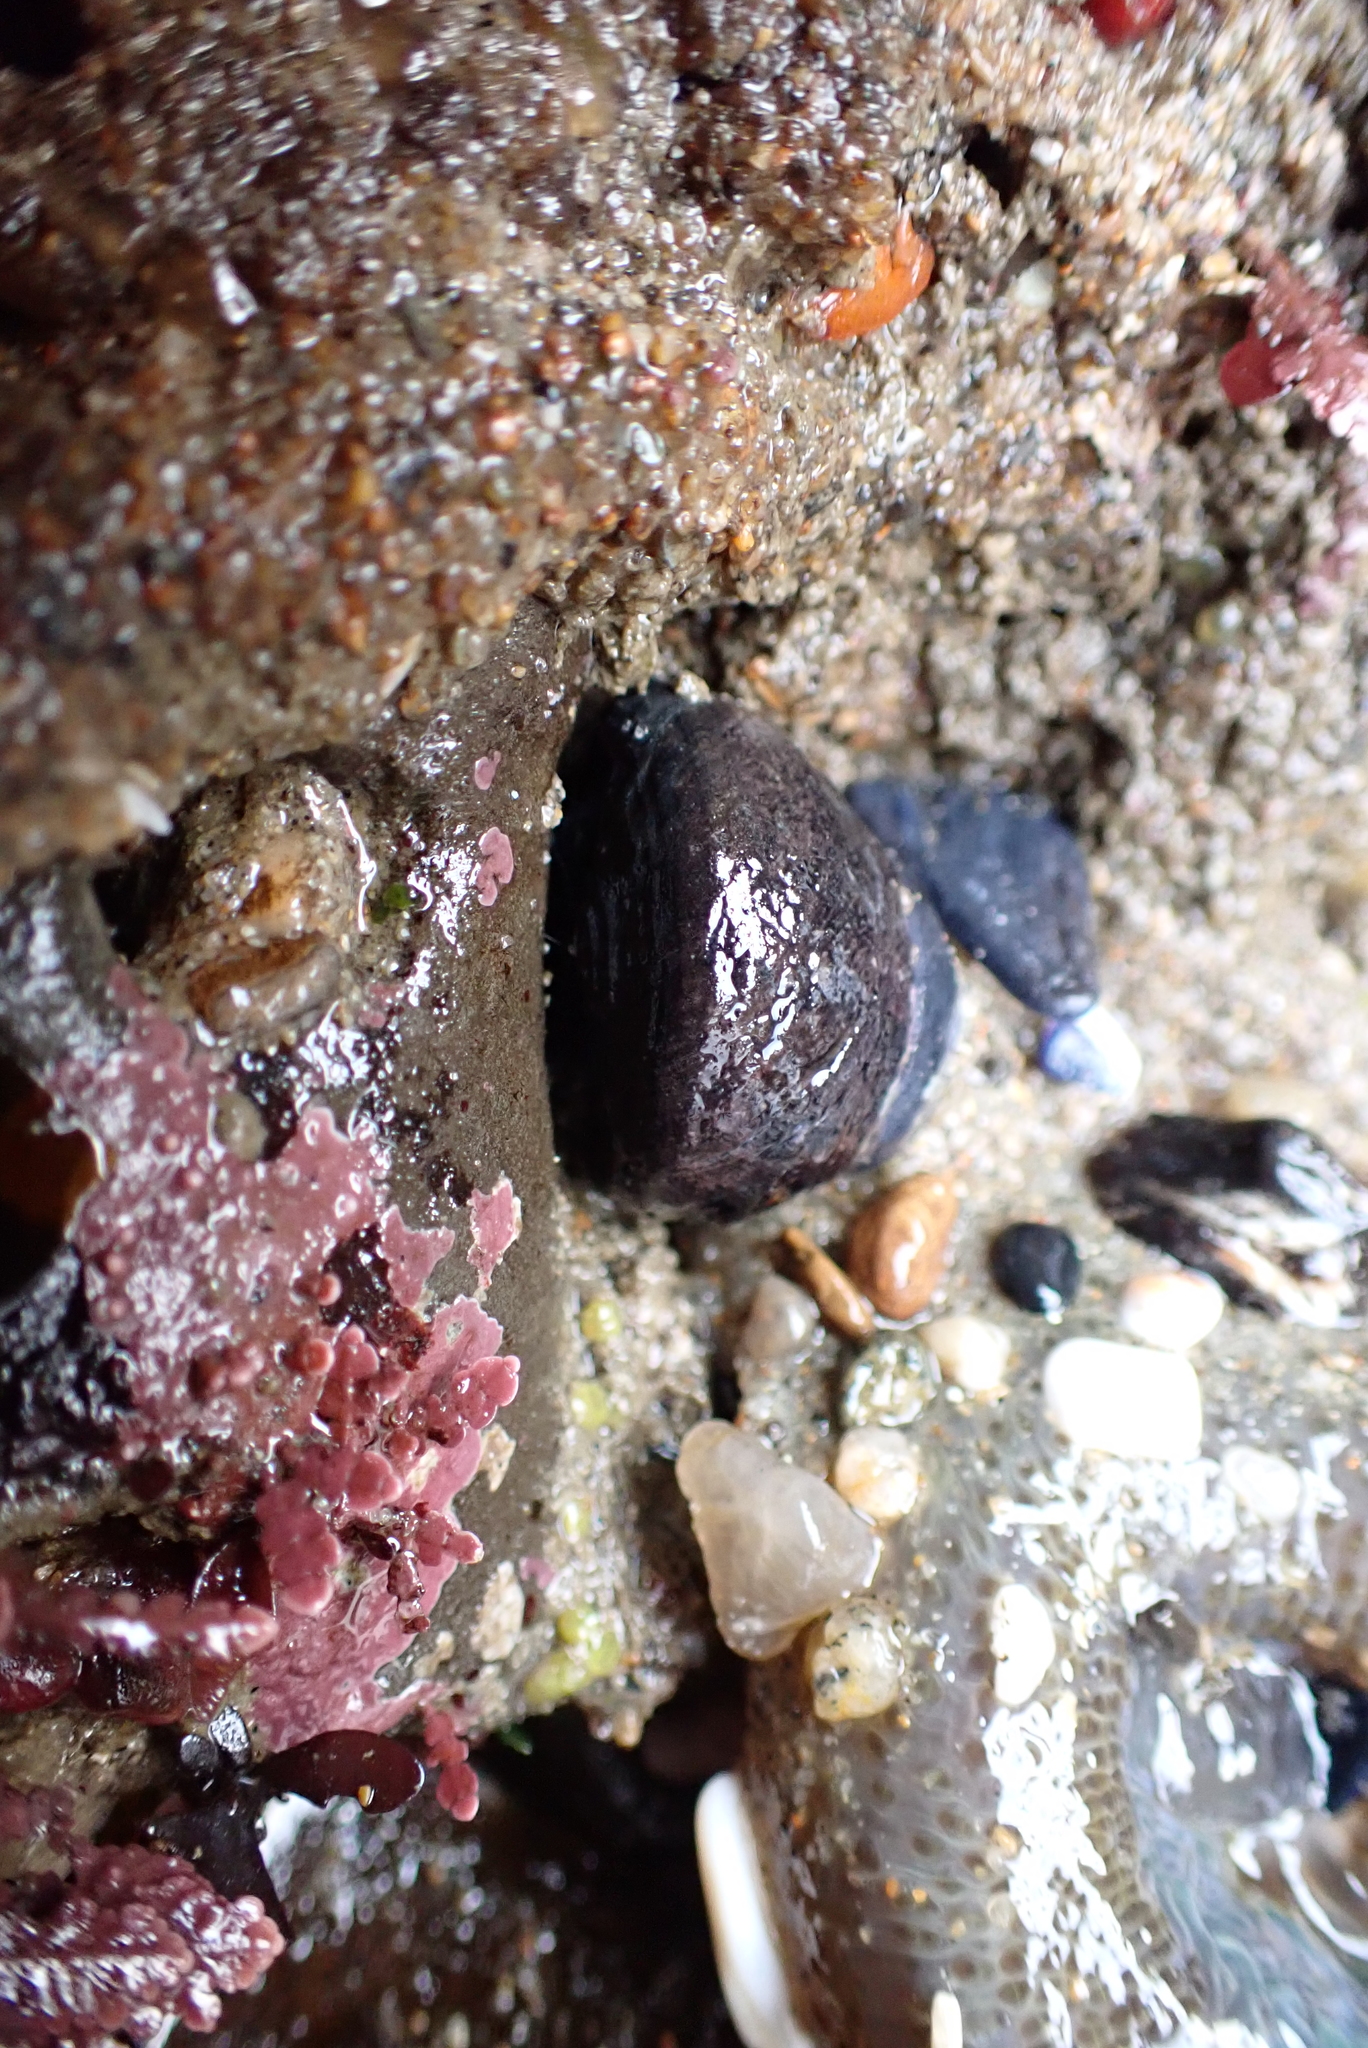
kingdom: Animalia
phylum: Mollusca
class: Gastropoda
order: Trochida
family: Tegulidae
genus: Tegula
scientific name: Tegula funebralis
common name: Black tegula
